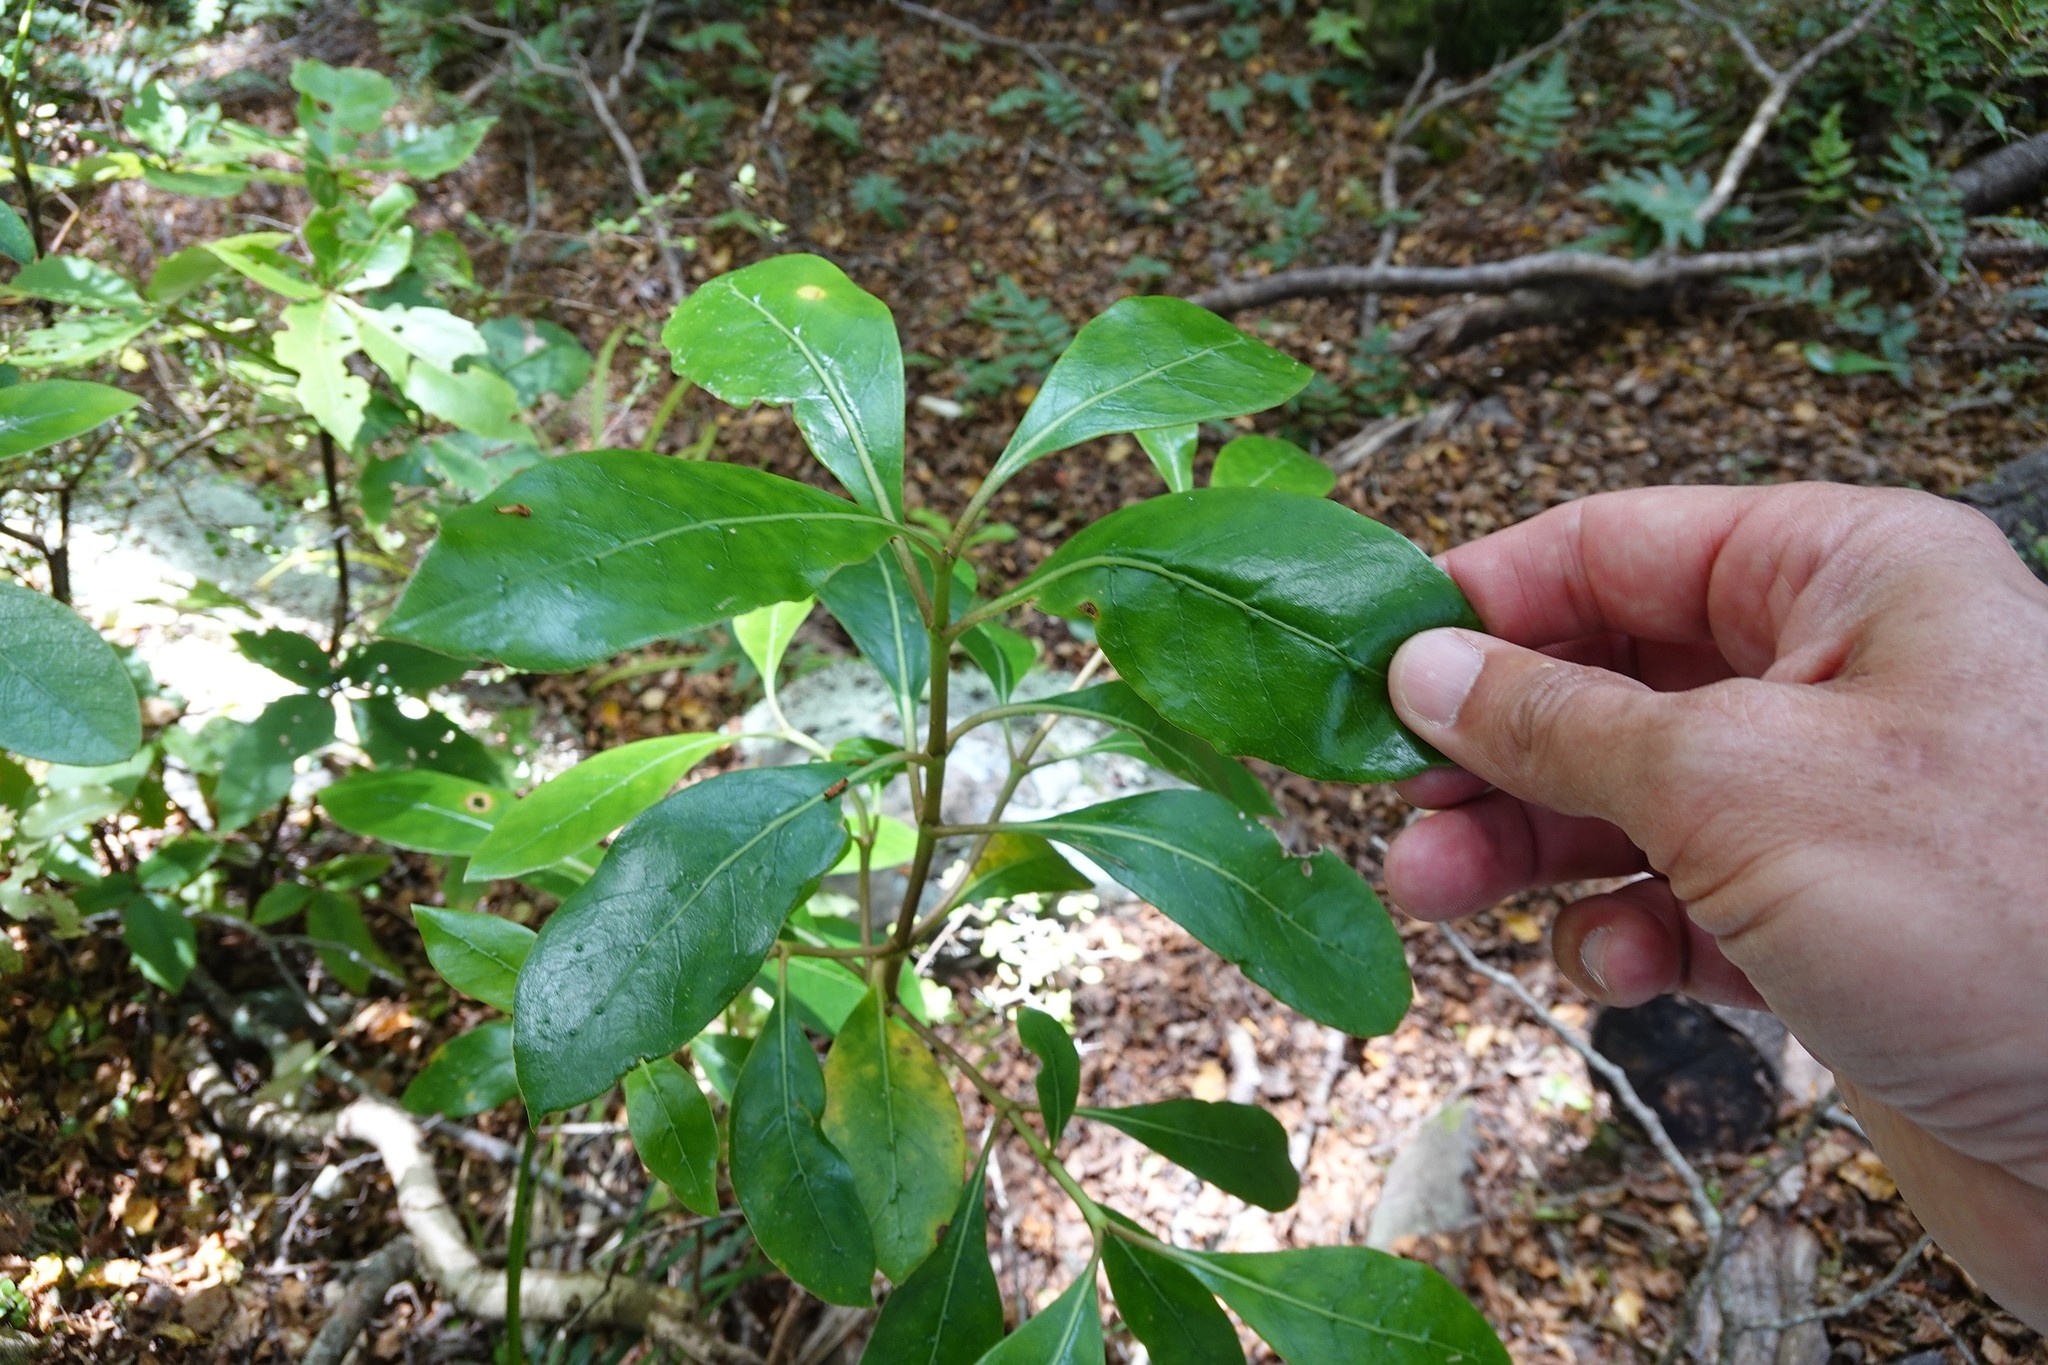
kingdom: Plantae
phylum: Tracheophyta
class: Magnoliopsida
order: Gentianales
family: Rubiaceae
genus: Coprosma
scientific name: Coprosma lucida
